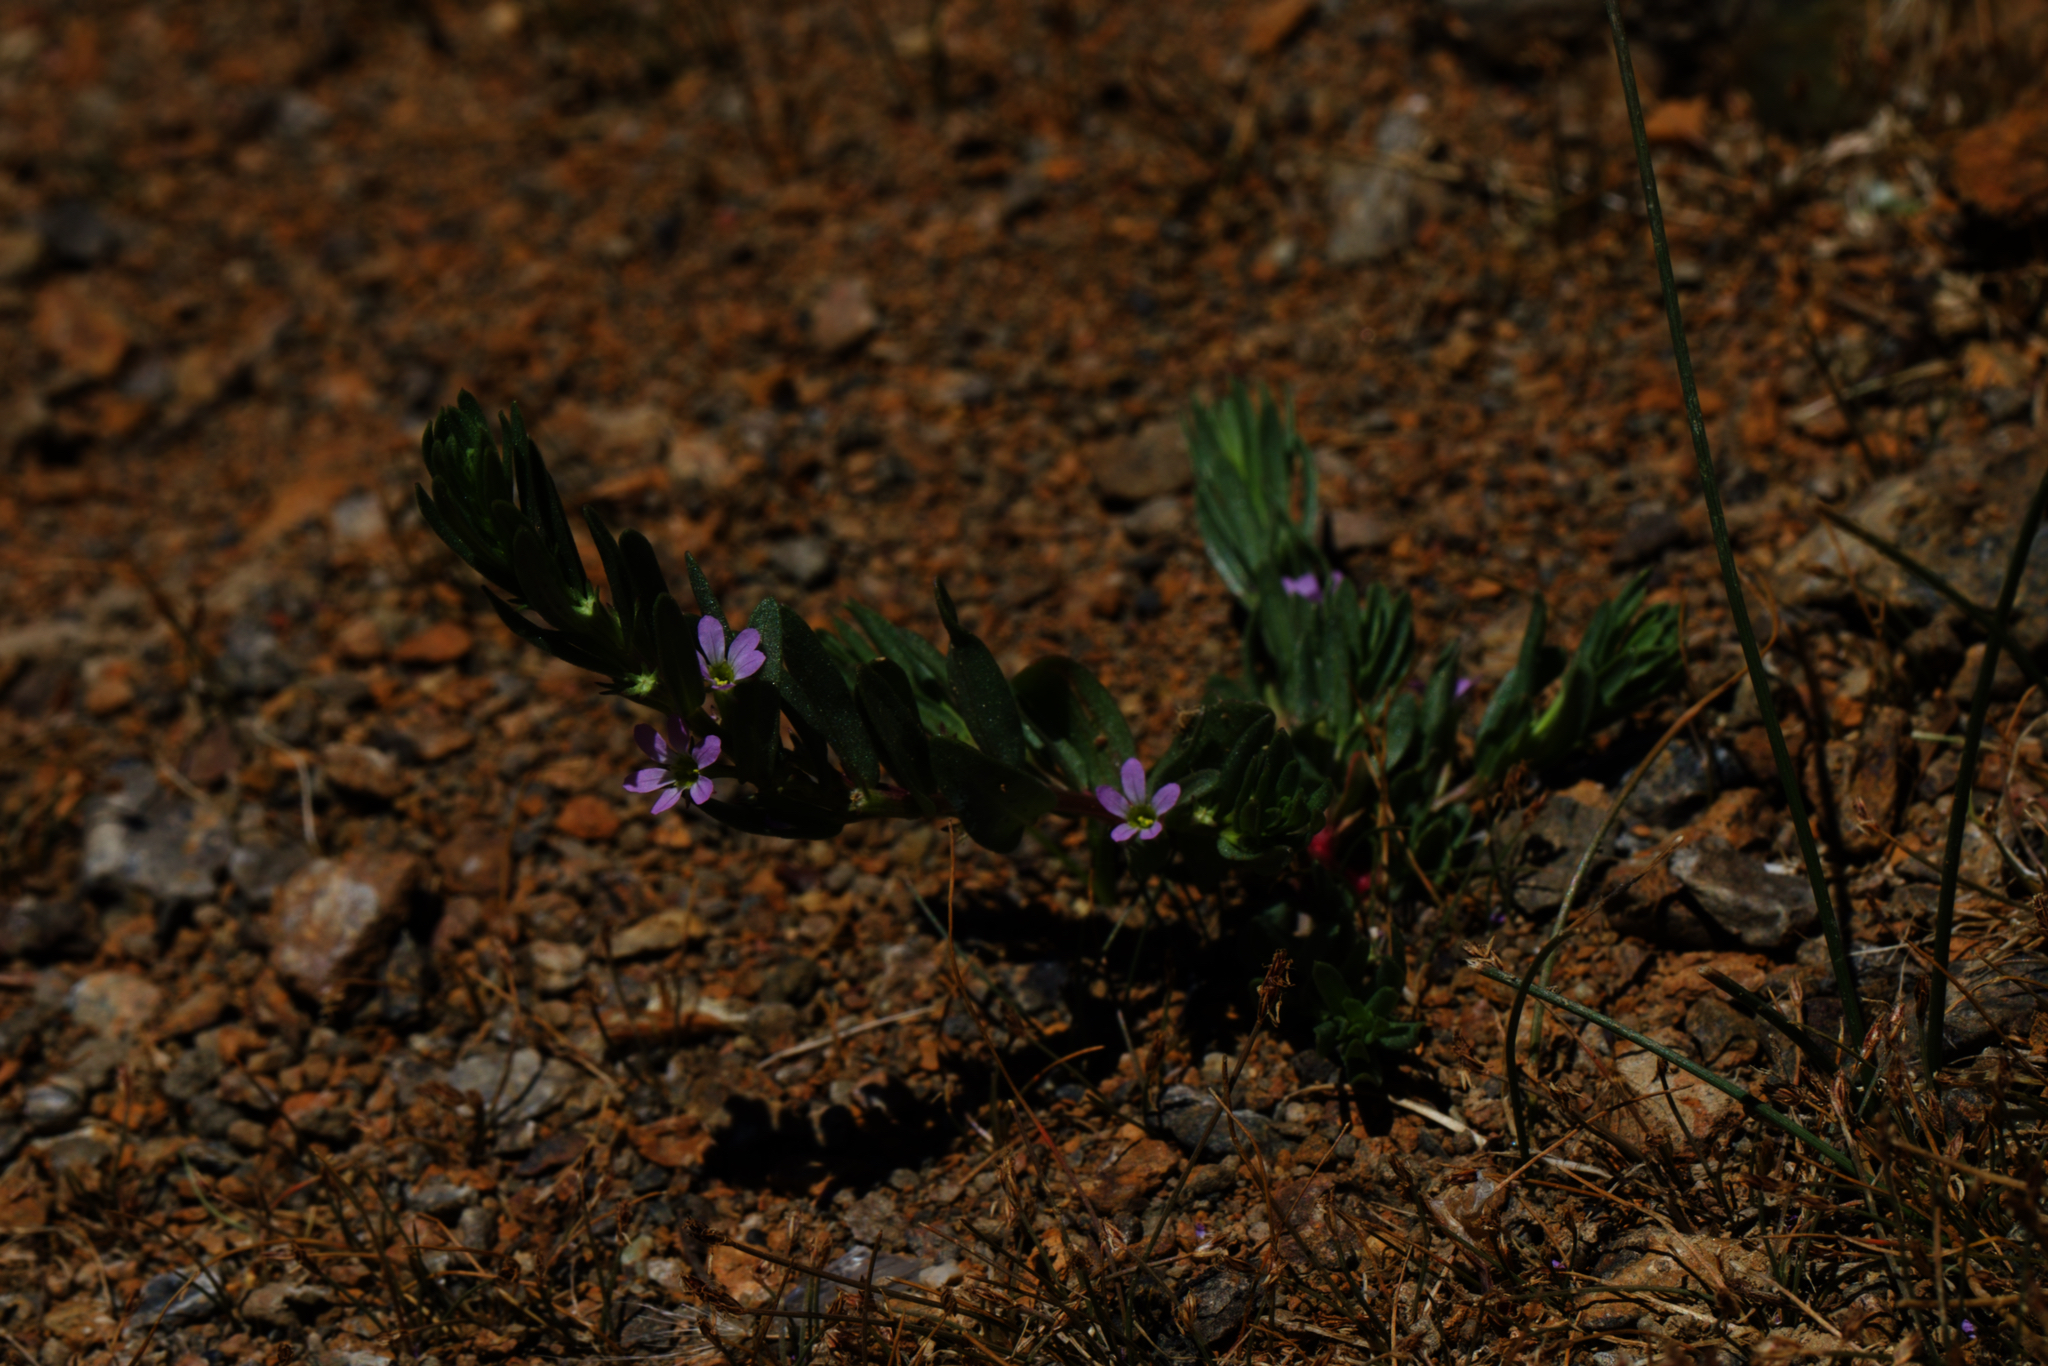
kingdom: Plantae
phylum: Tracheophyta
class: Magnoliopsida
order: Myrtales
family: Lythraceae
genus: Lythrum
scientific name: Lythrum hyssopifolia
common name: Grass-poly
